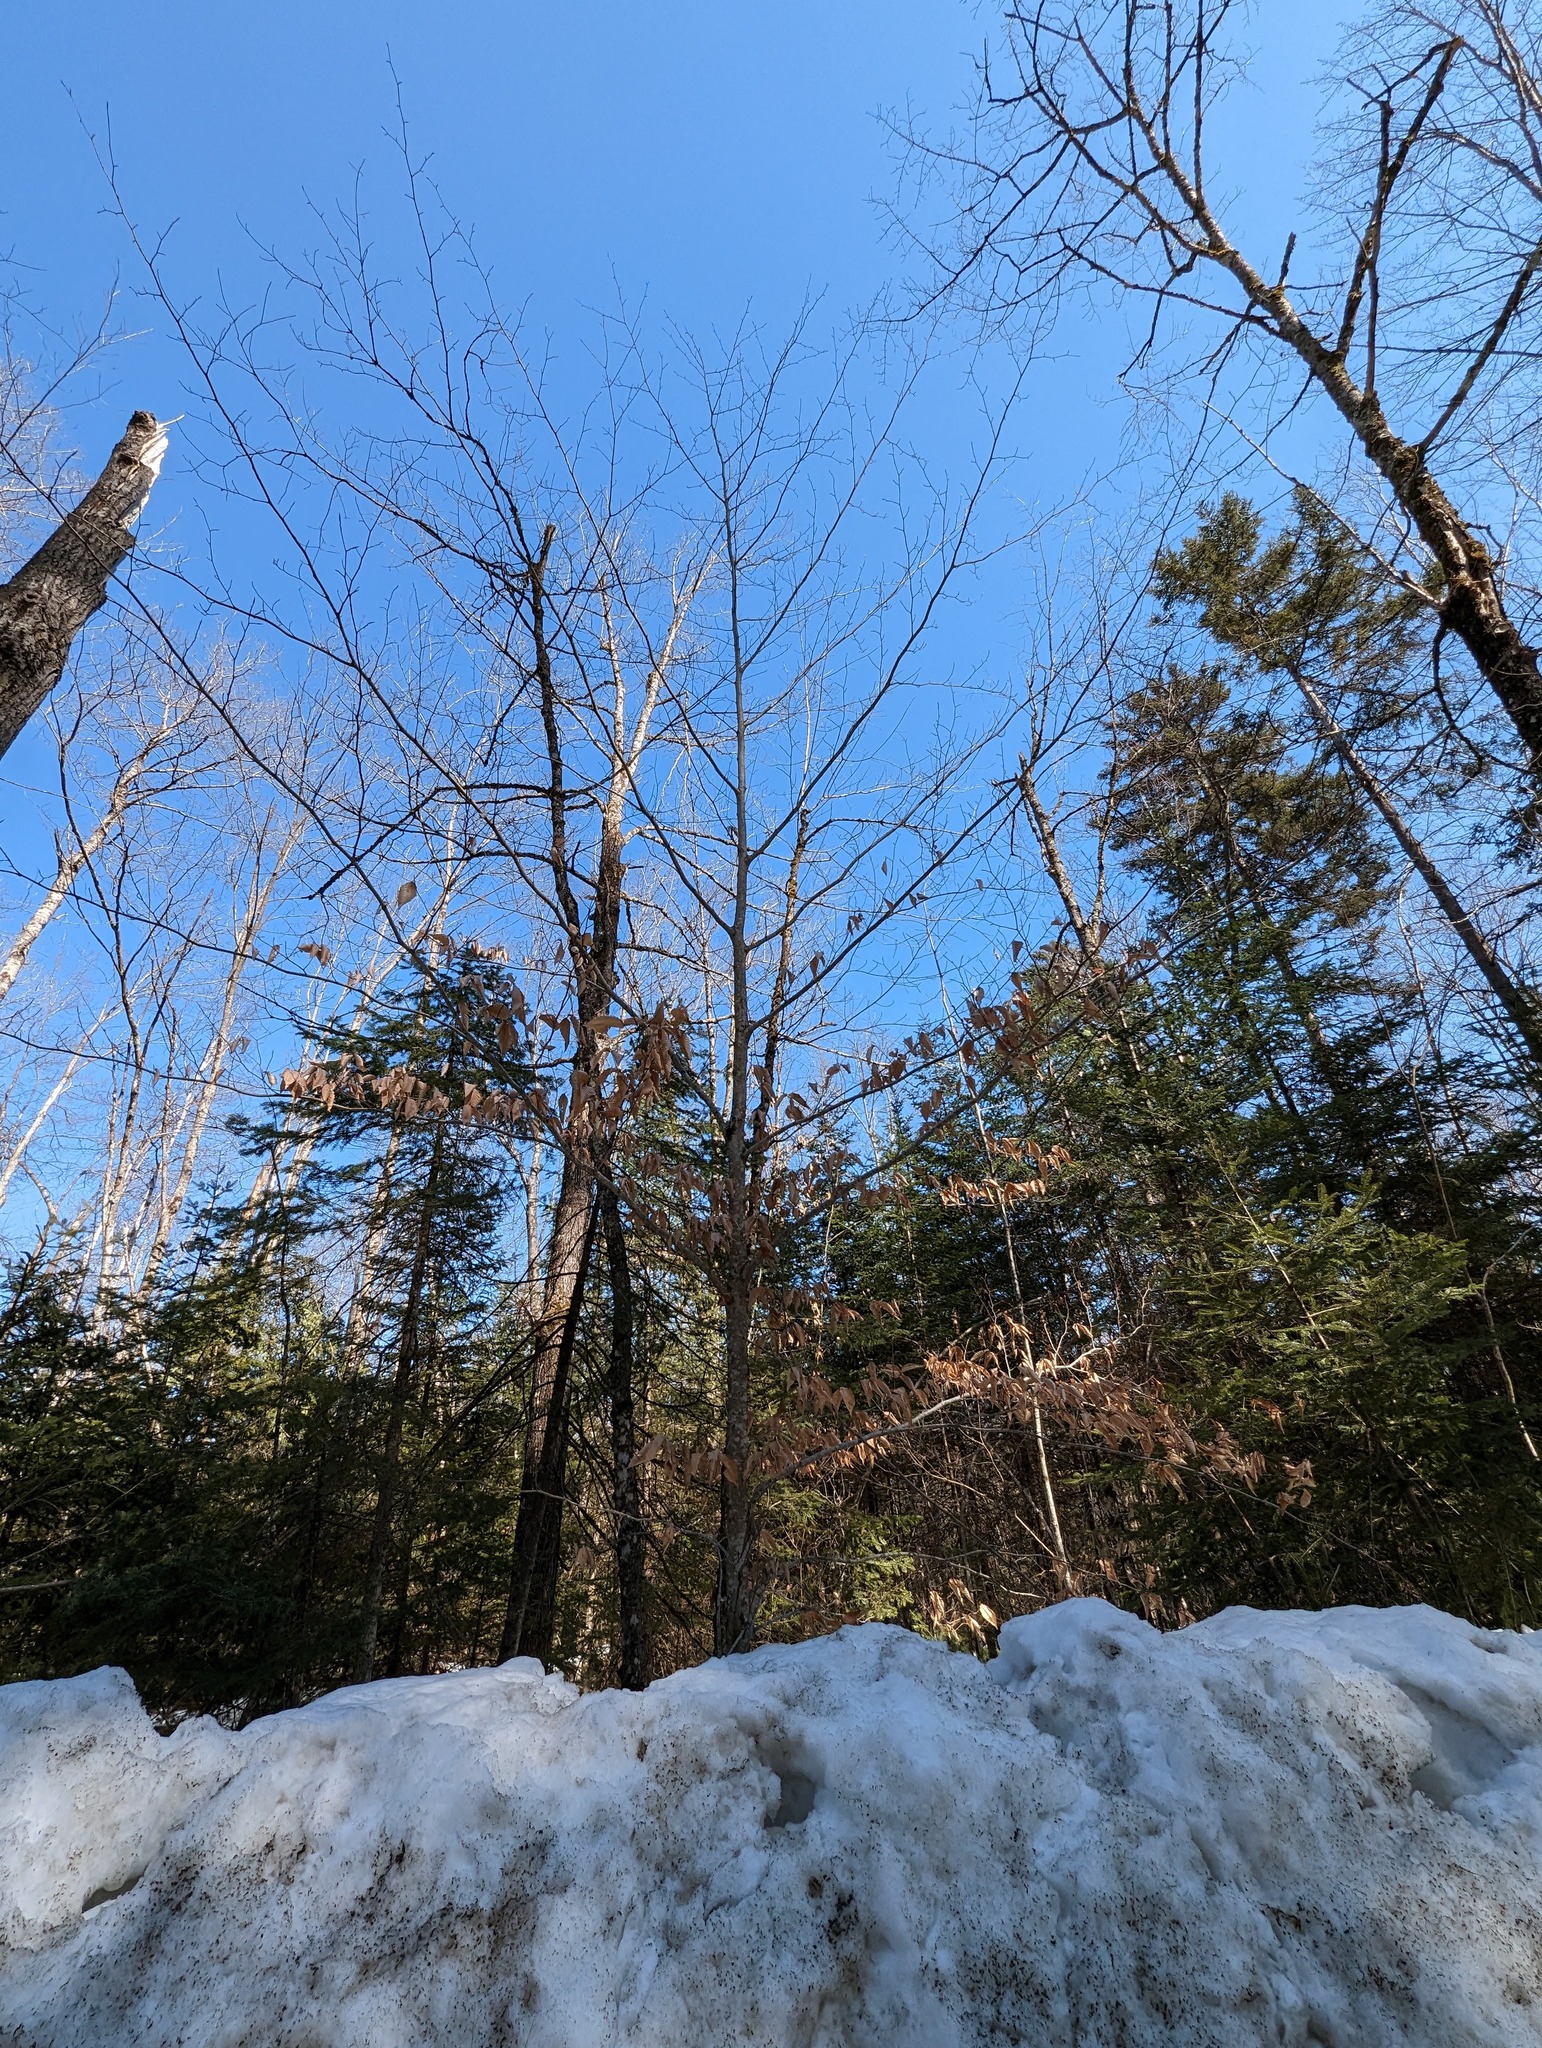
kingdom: Plantae
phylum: Tracheophyta
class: Magnoliopsida
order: Fagales
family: Fagaceae
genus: Fagus
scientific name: Fagus grandifolia
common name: American beech
